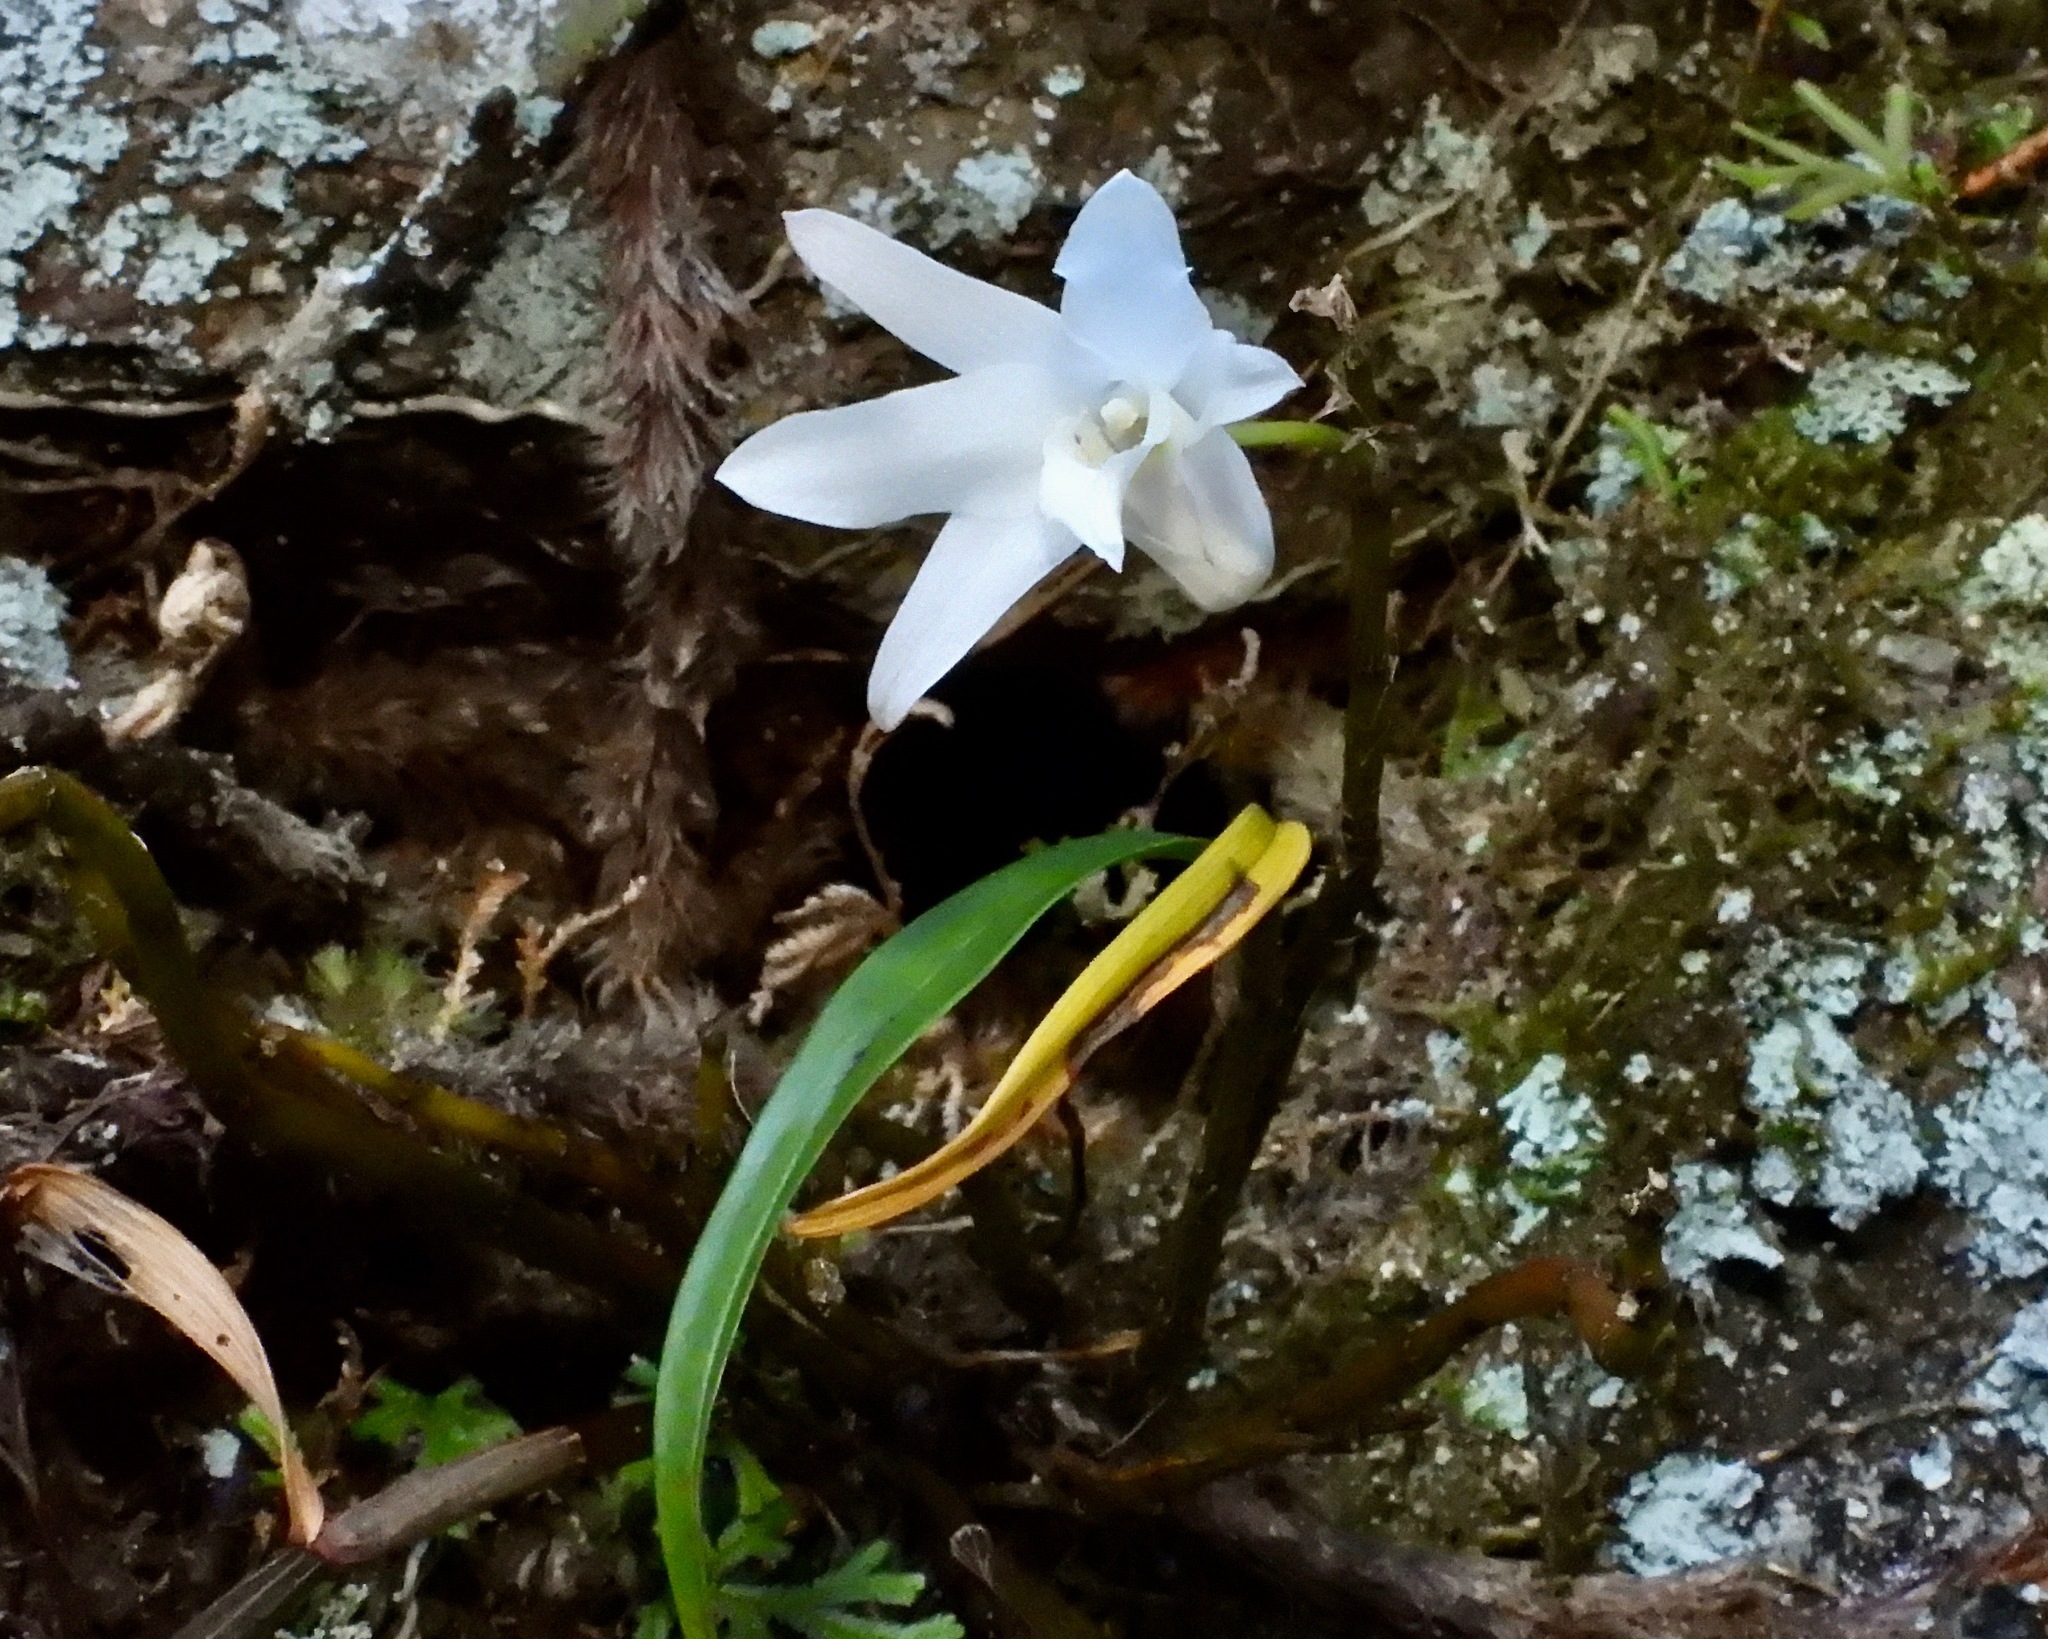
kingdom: Plantae
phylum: Tracheophyta
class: Liliopsida
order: Asparagales
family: Orchidaceae
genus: Dendrobium
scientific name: Dendrobium moniliforme
